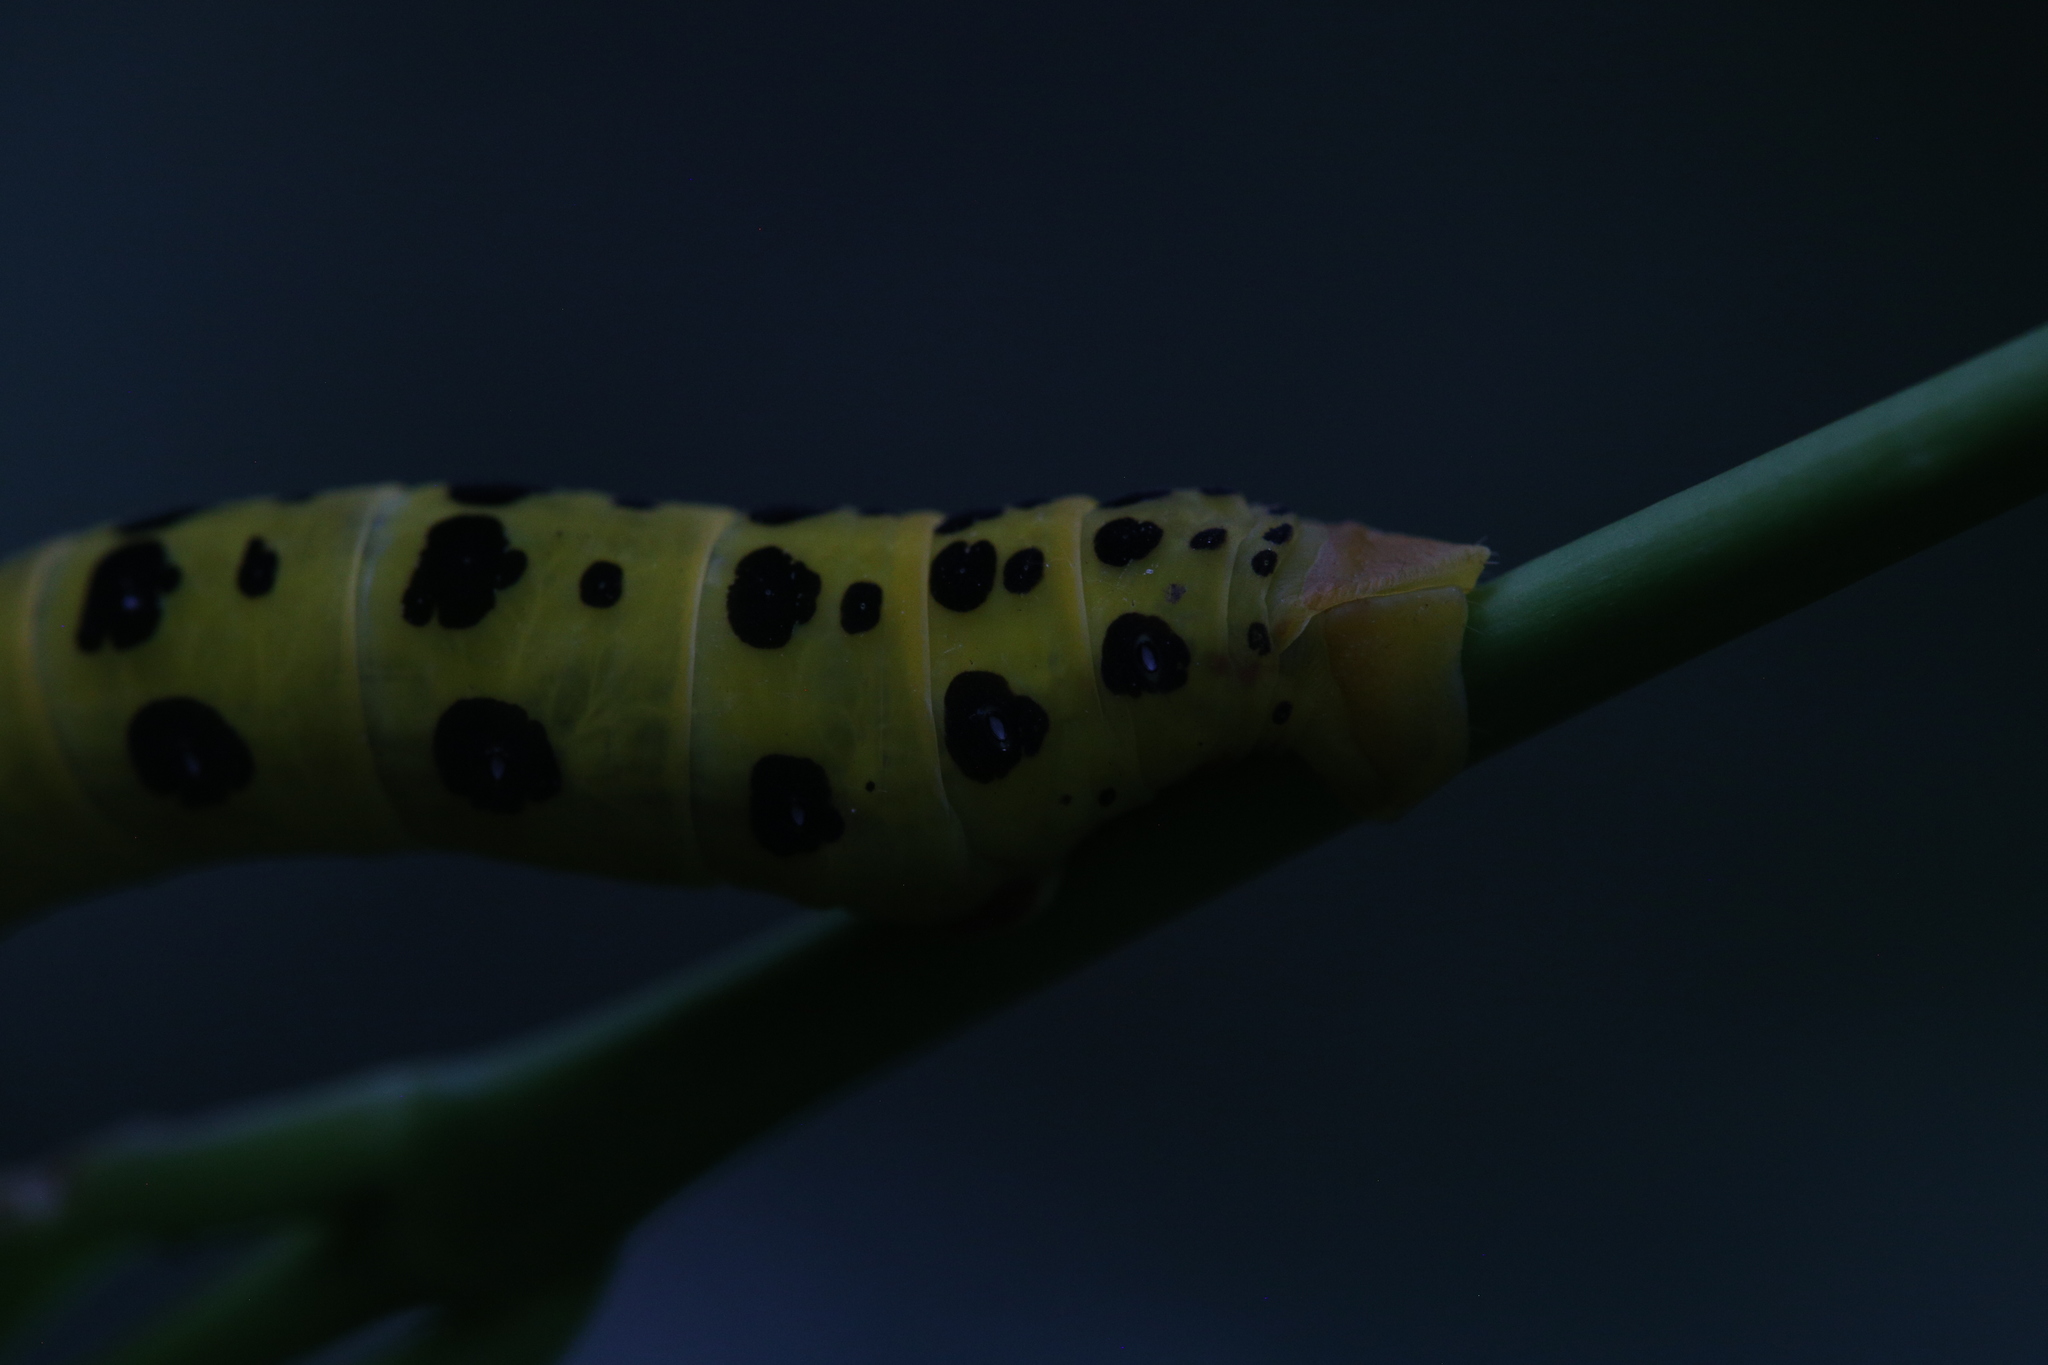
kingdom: Animalia
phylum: Arthropoda
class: Insecta
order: Lepidoptera
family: Geometridae
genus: Dysphania
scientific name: Dysphania numana
